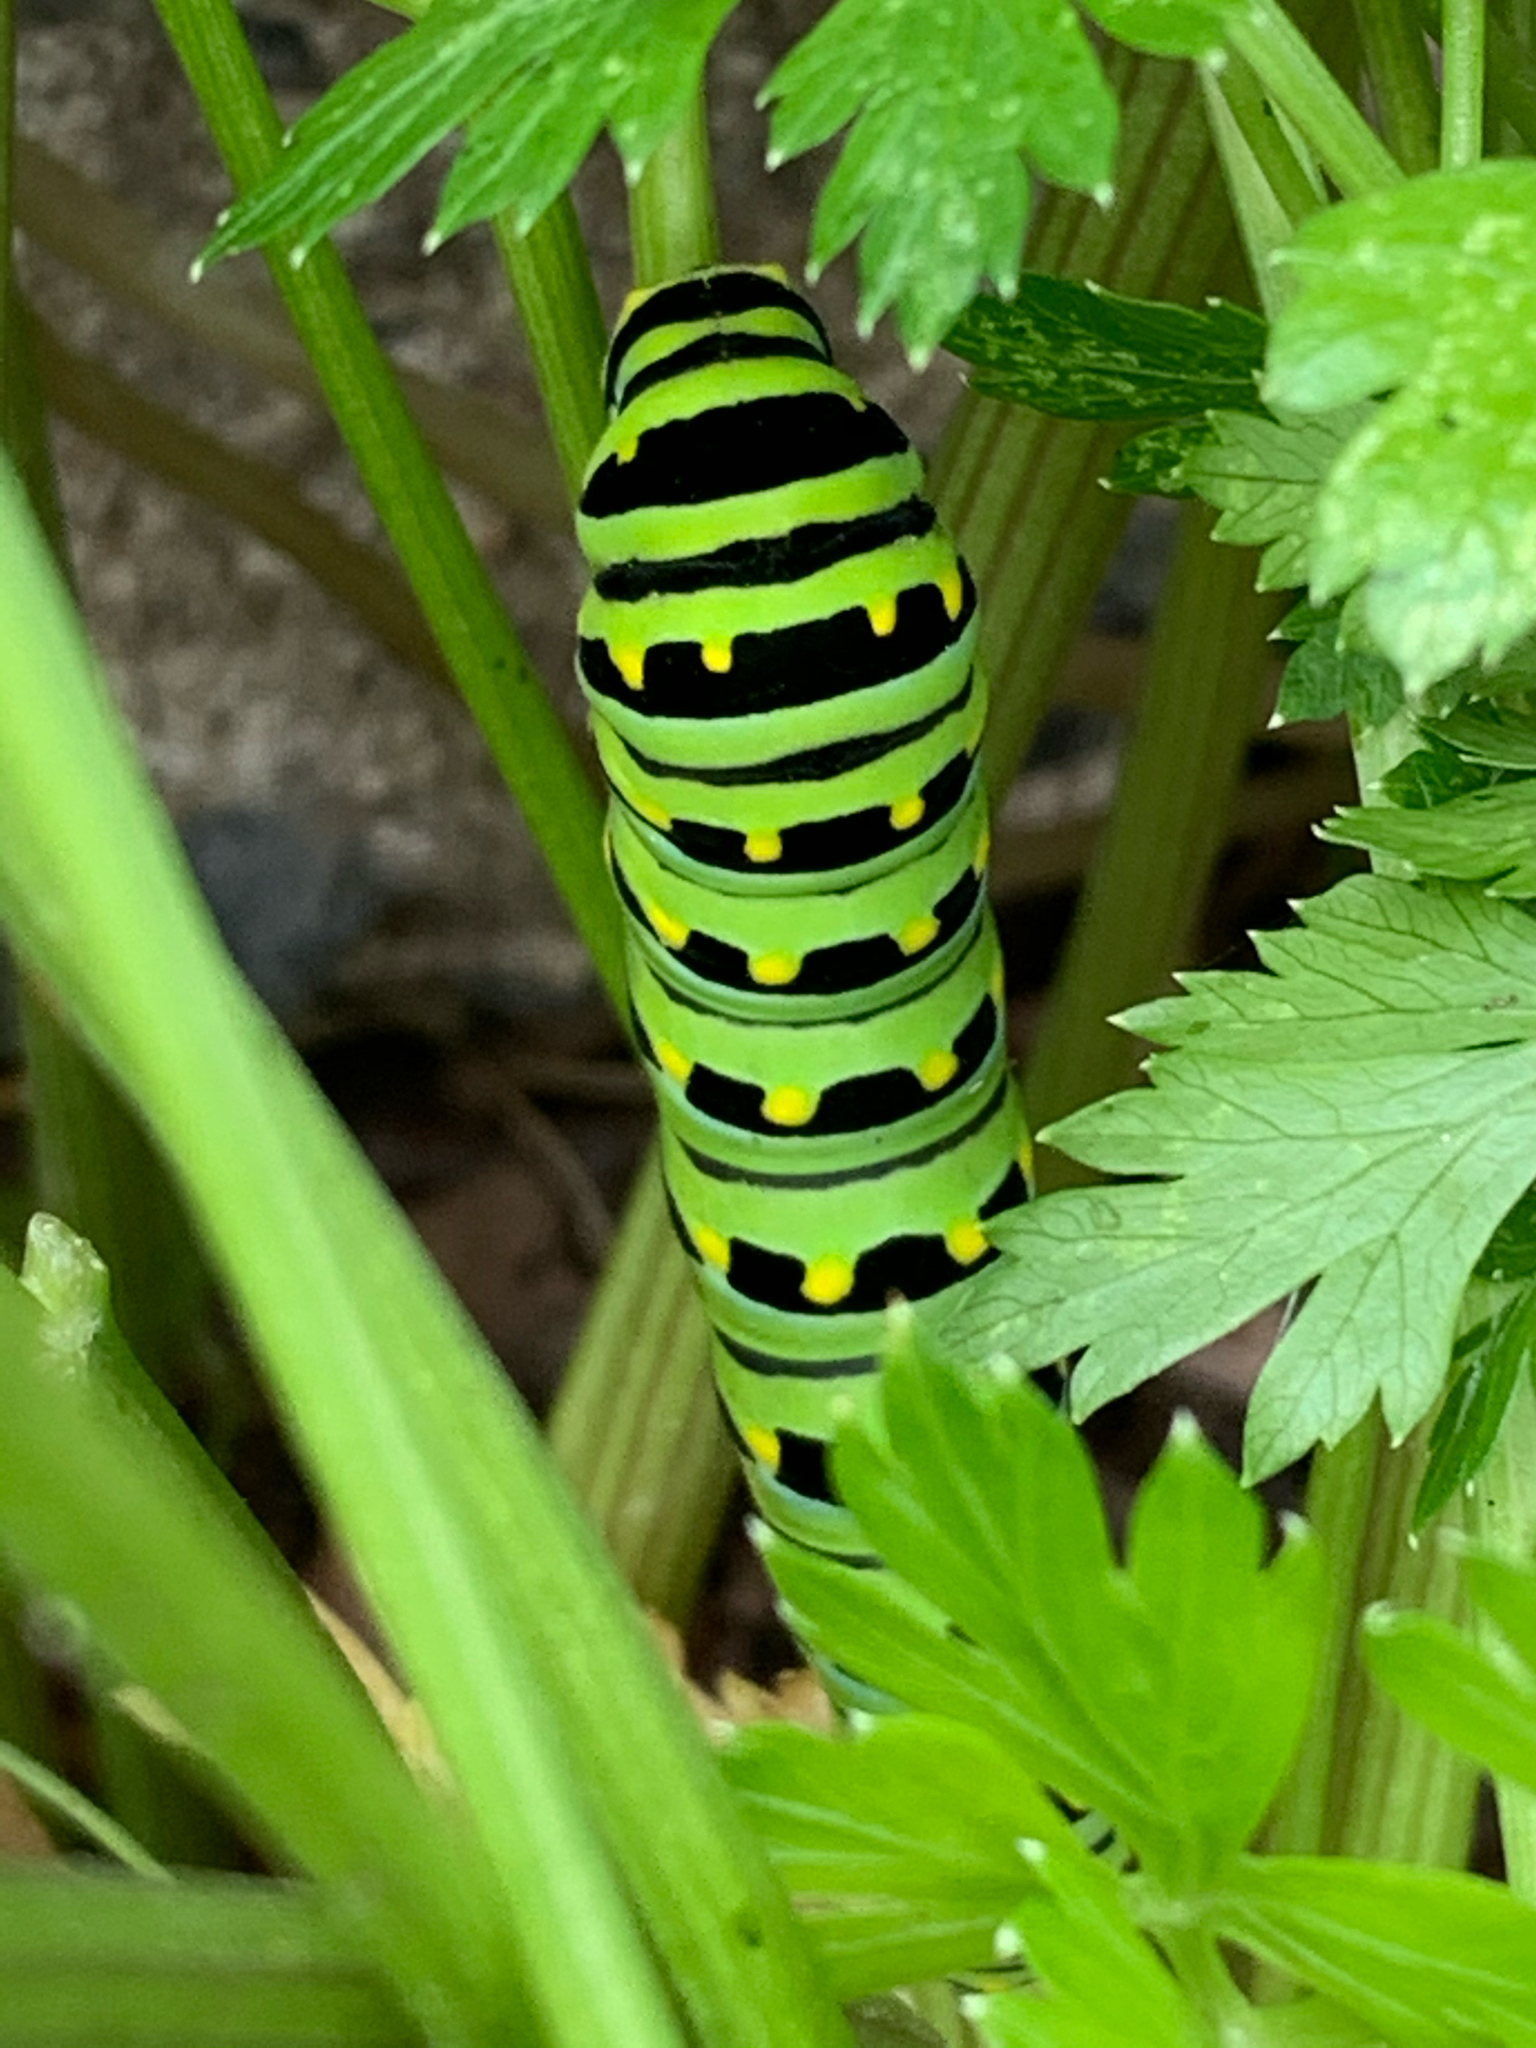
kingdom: Animalia
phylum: Arthropoda
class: Insecta
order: Lepidoptera
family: Papilionidae
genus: Papilio
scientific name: Papilio polyxenes
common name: Black swallowtail
